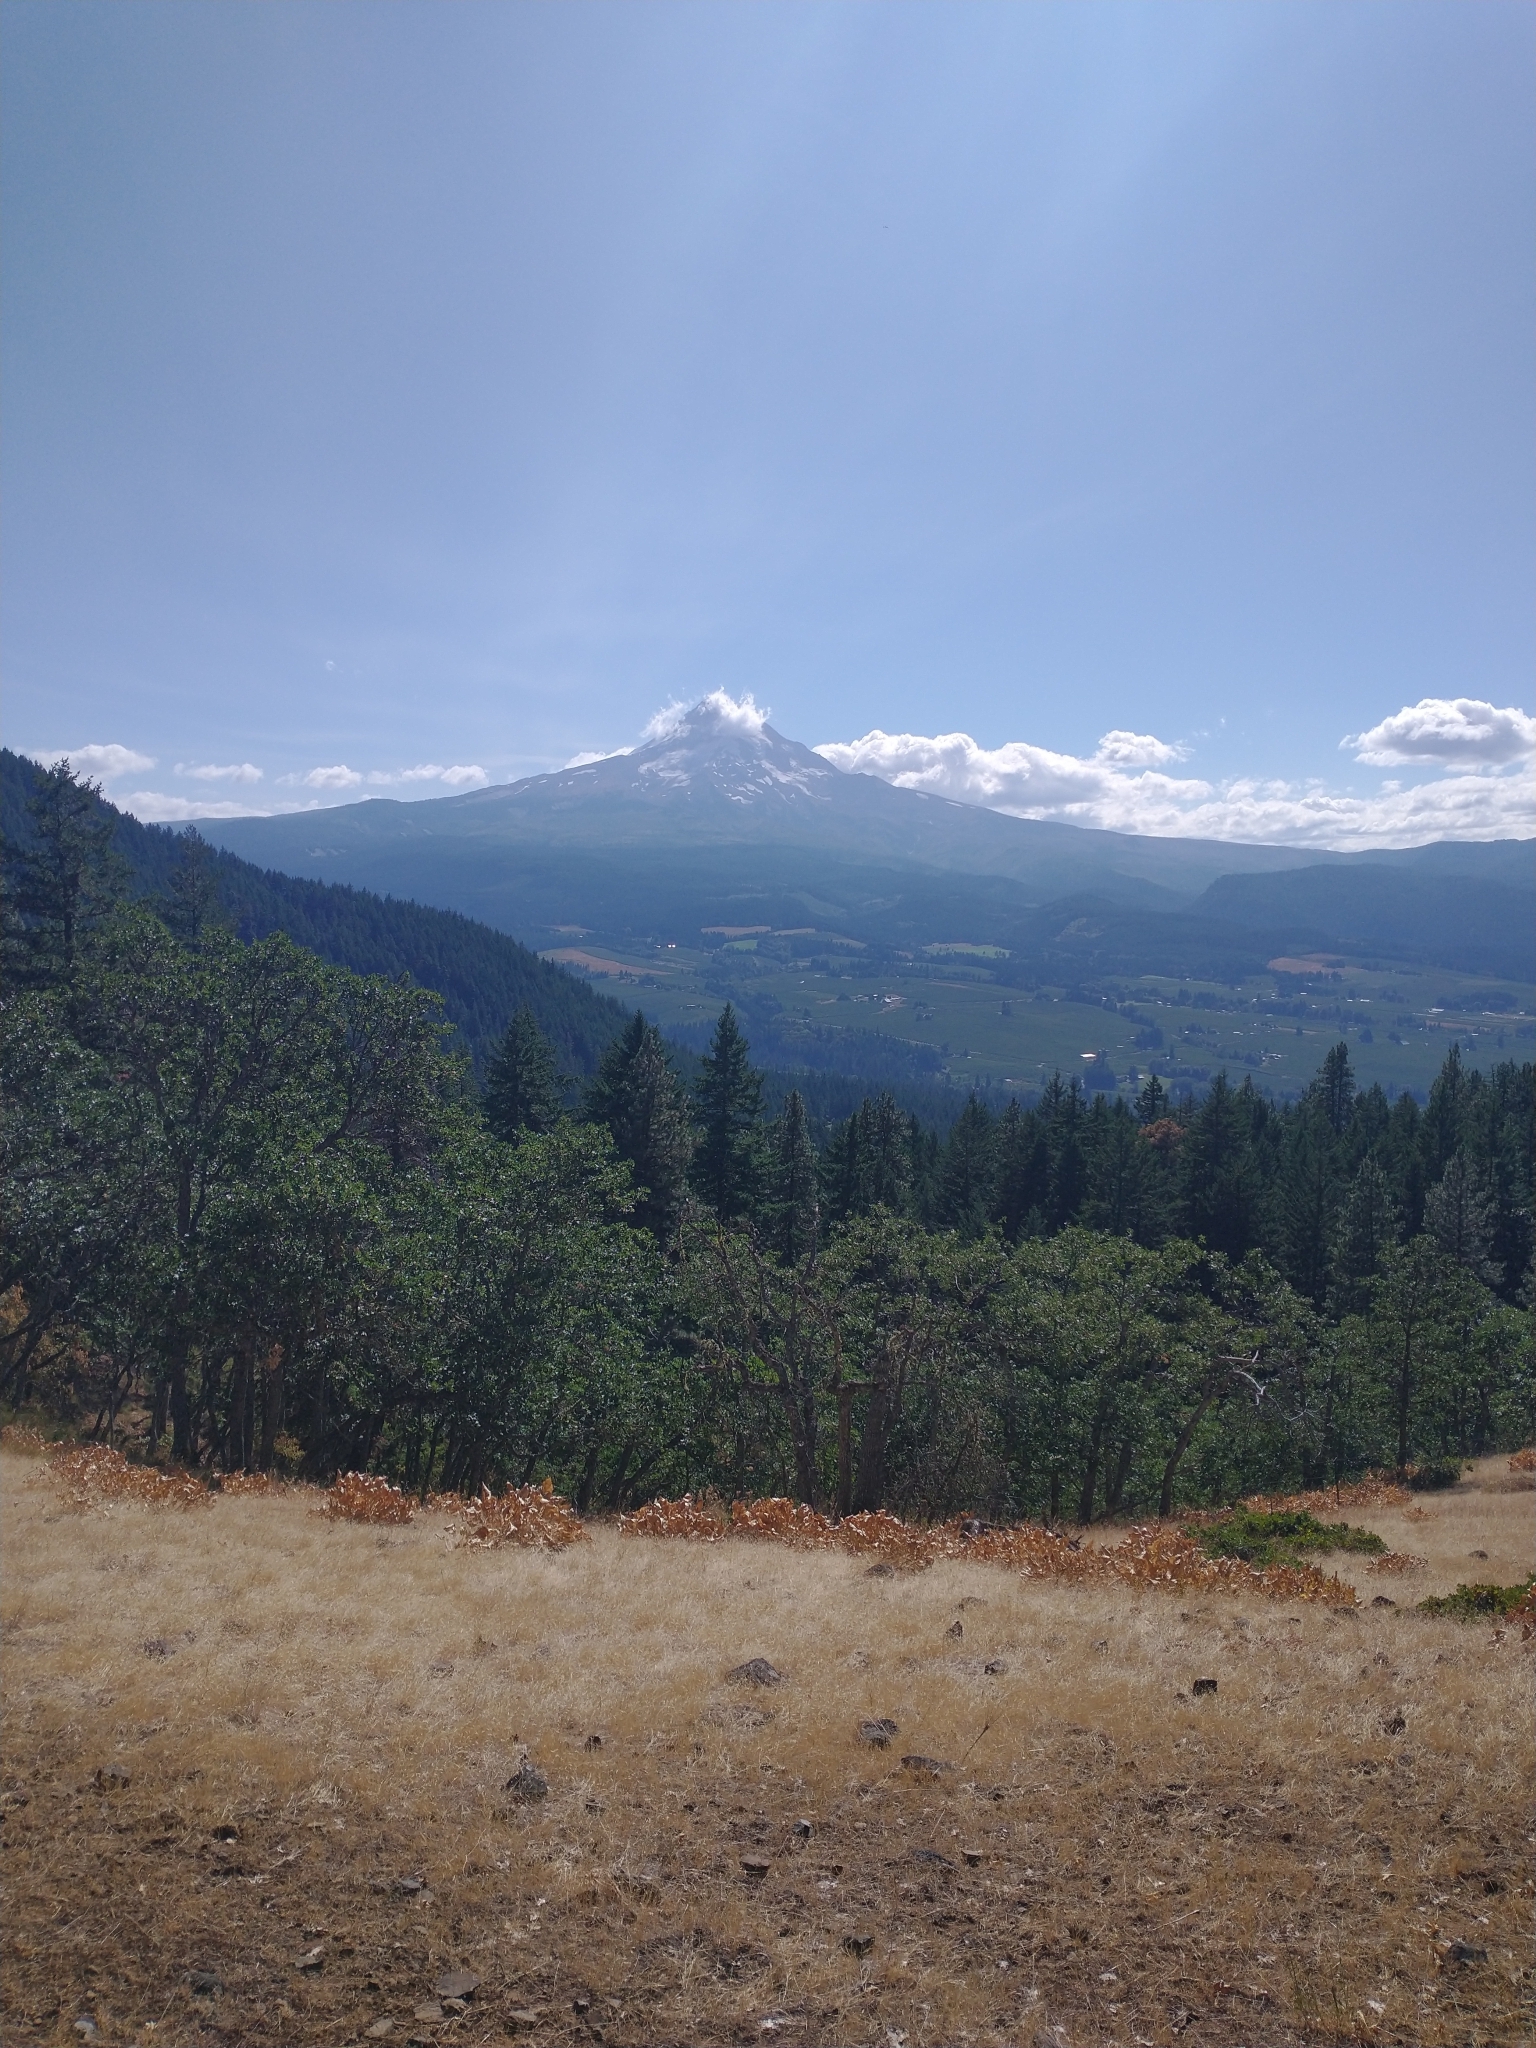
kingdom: Plantae
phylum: Tracheophyta
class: Pinopsida
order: Pinales
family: Pinaceae
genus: Pinus
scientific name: Pinus ponderosa
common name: Western yellow-pine
